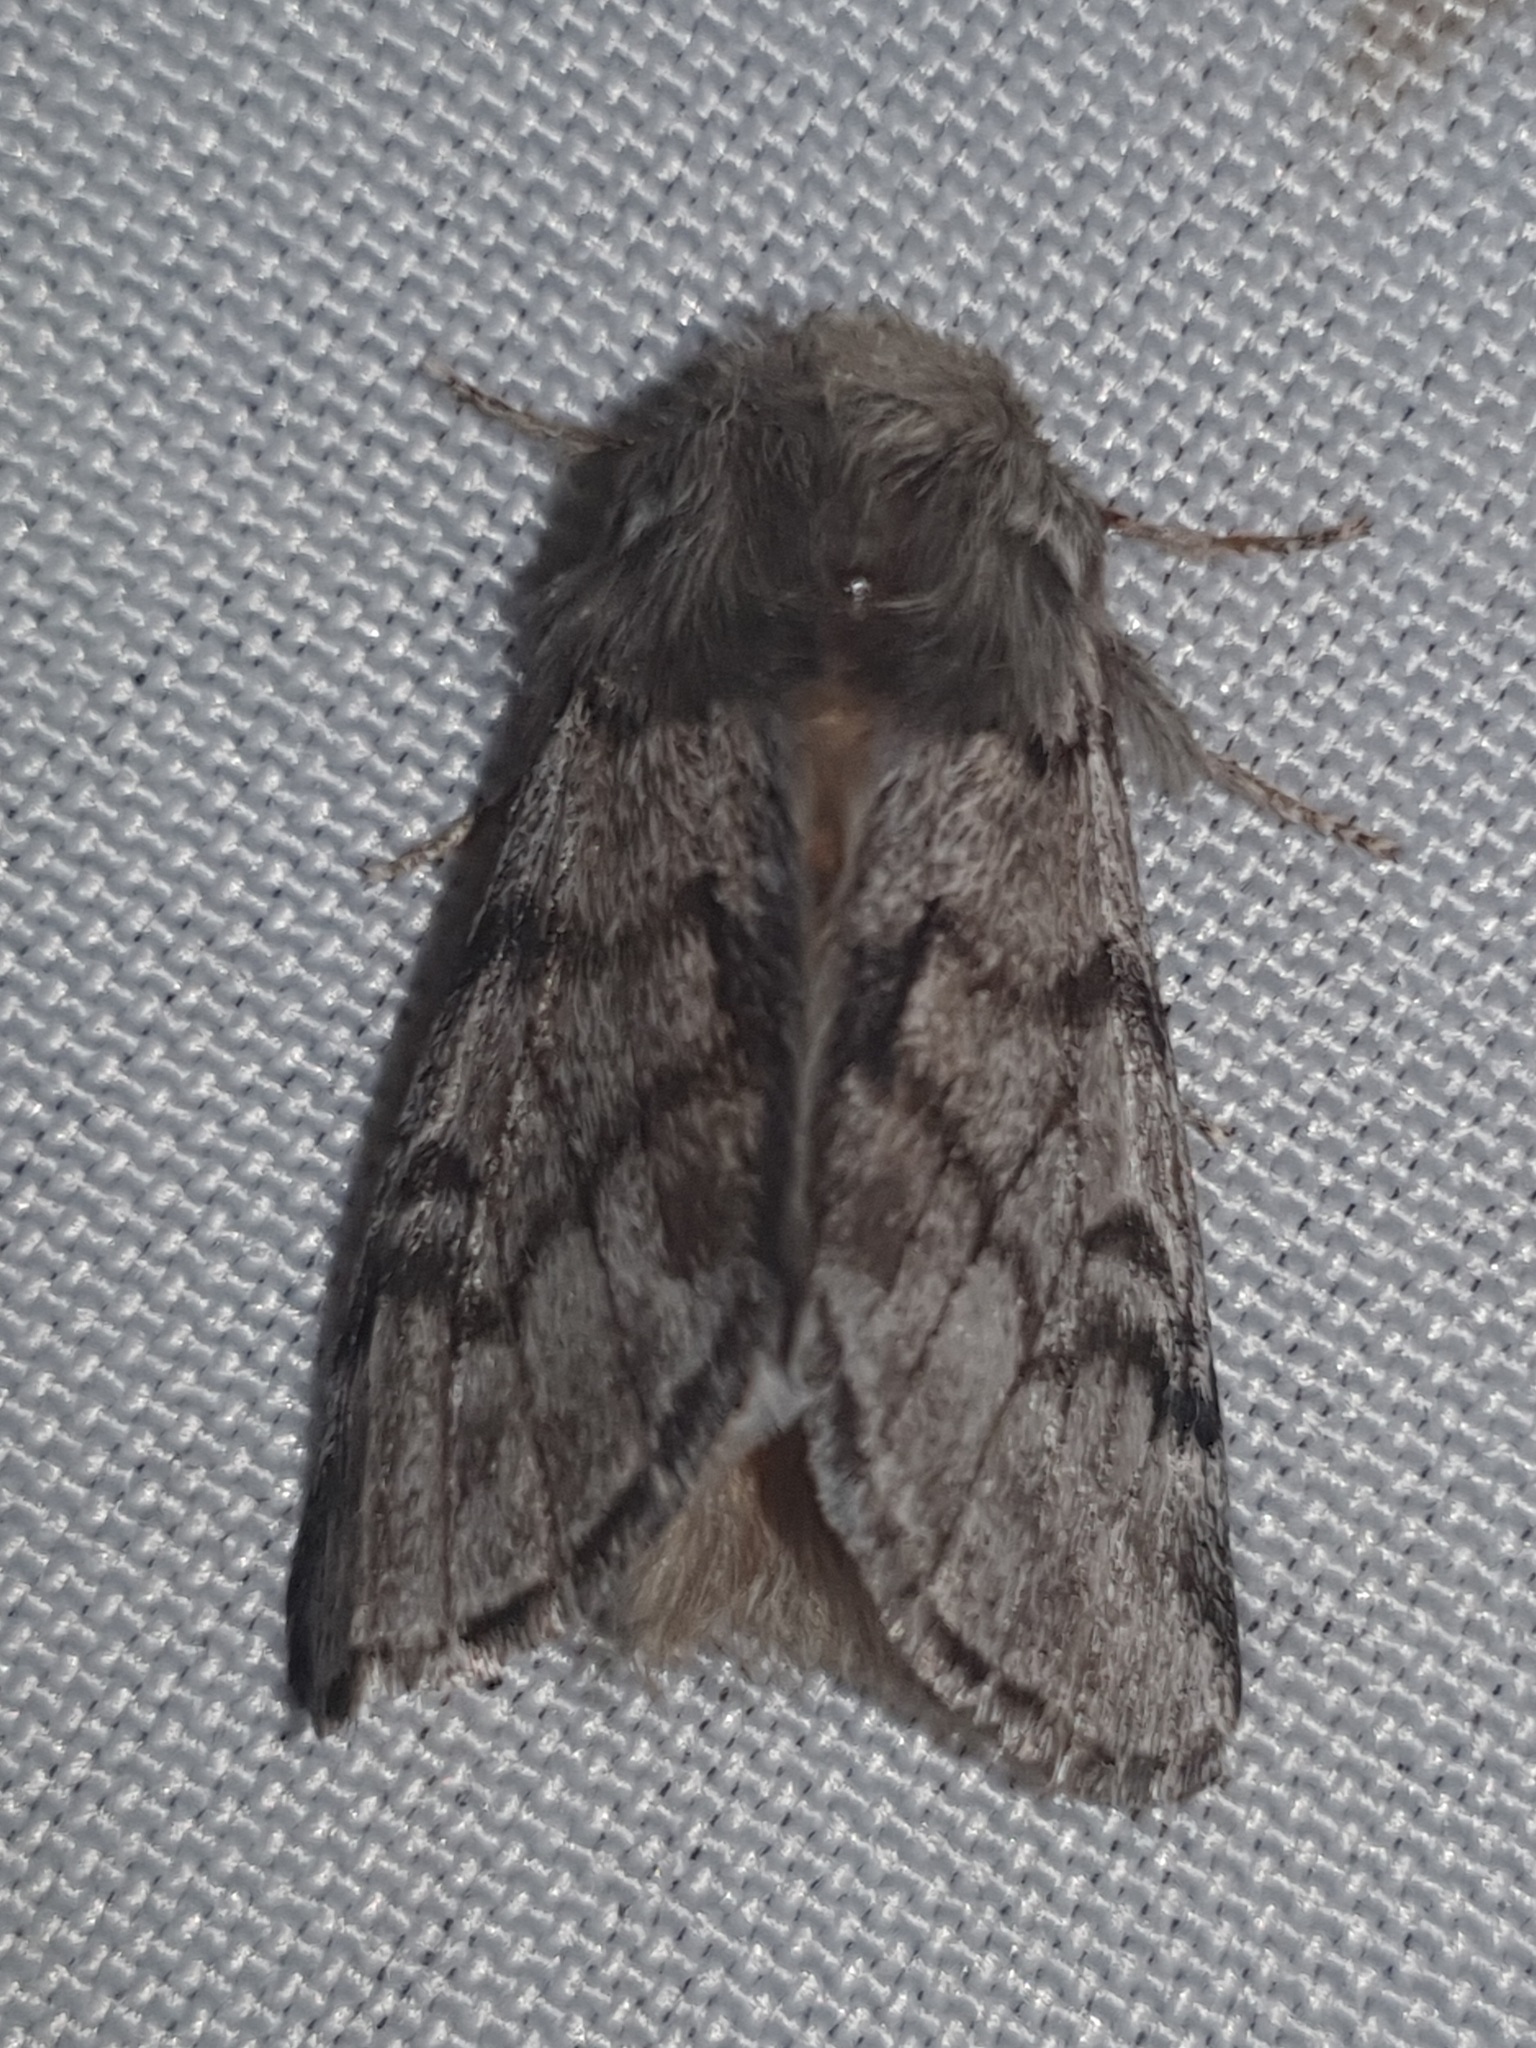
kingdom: Animalia
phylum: Arthropoda
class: Insecta
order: Lepidoptera
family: Notodontidae
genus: Thaumetopoea
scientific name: Thaumetopoea pityocampa
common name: Pine processionary
